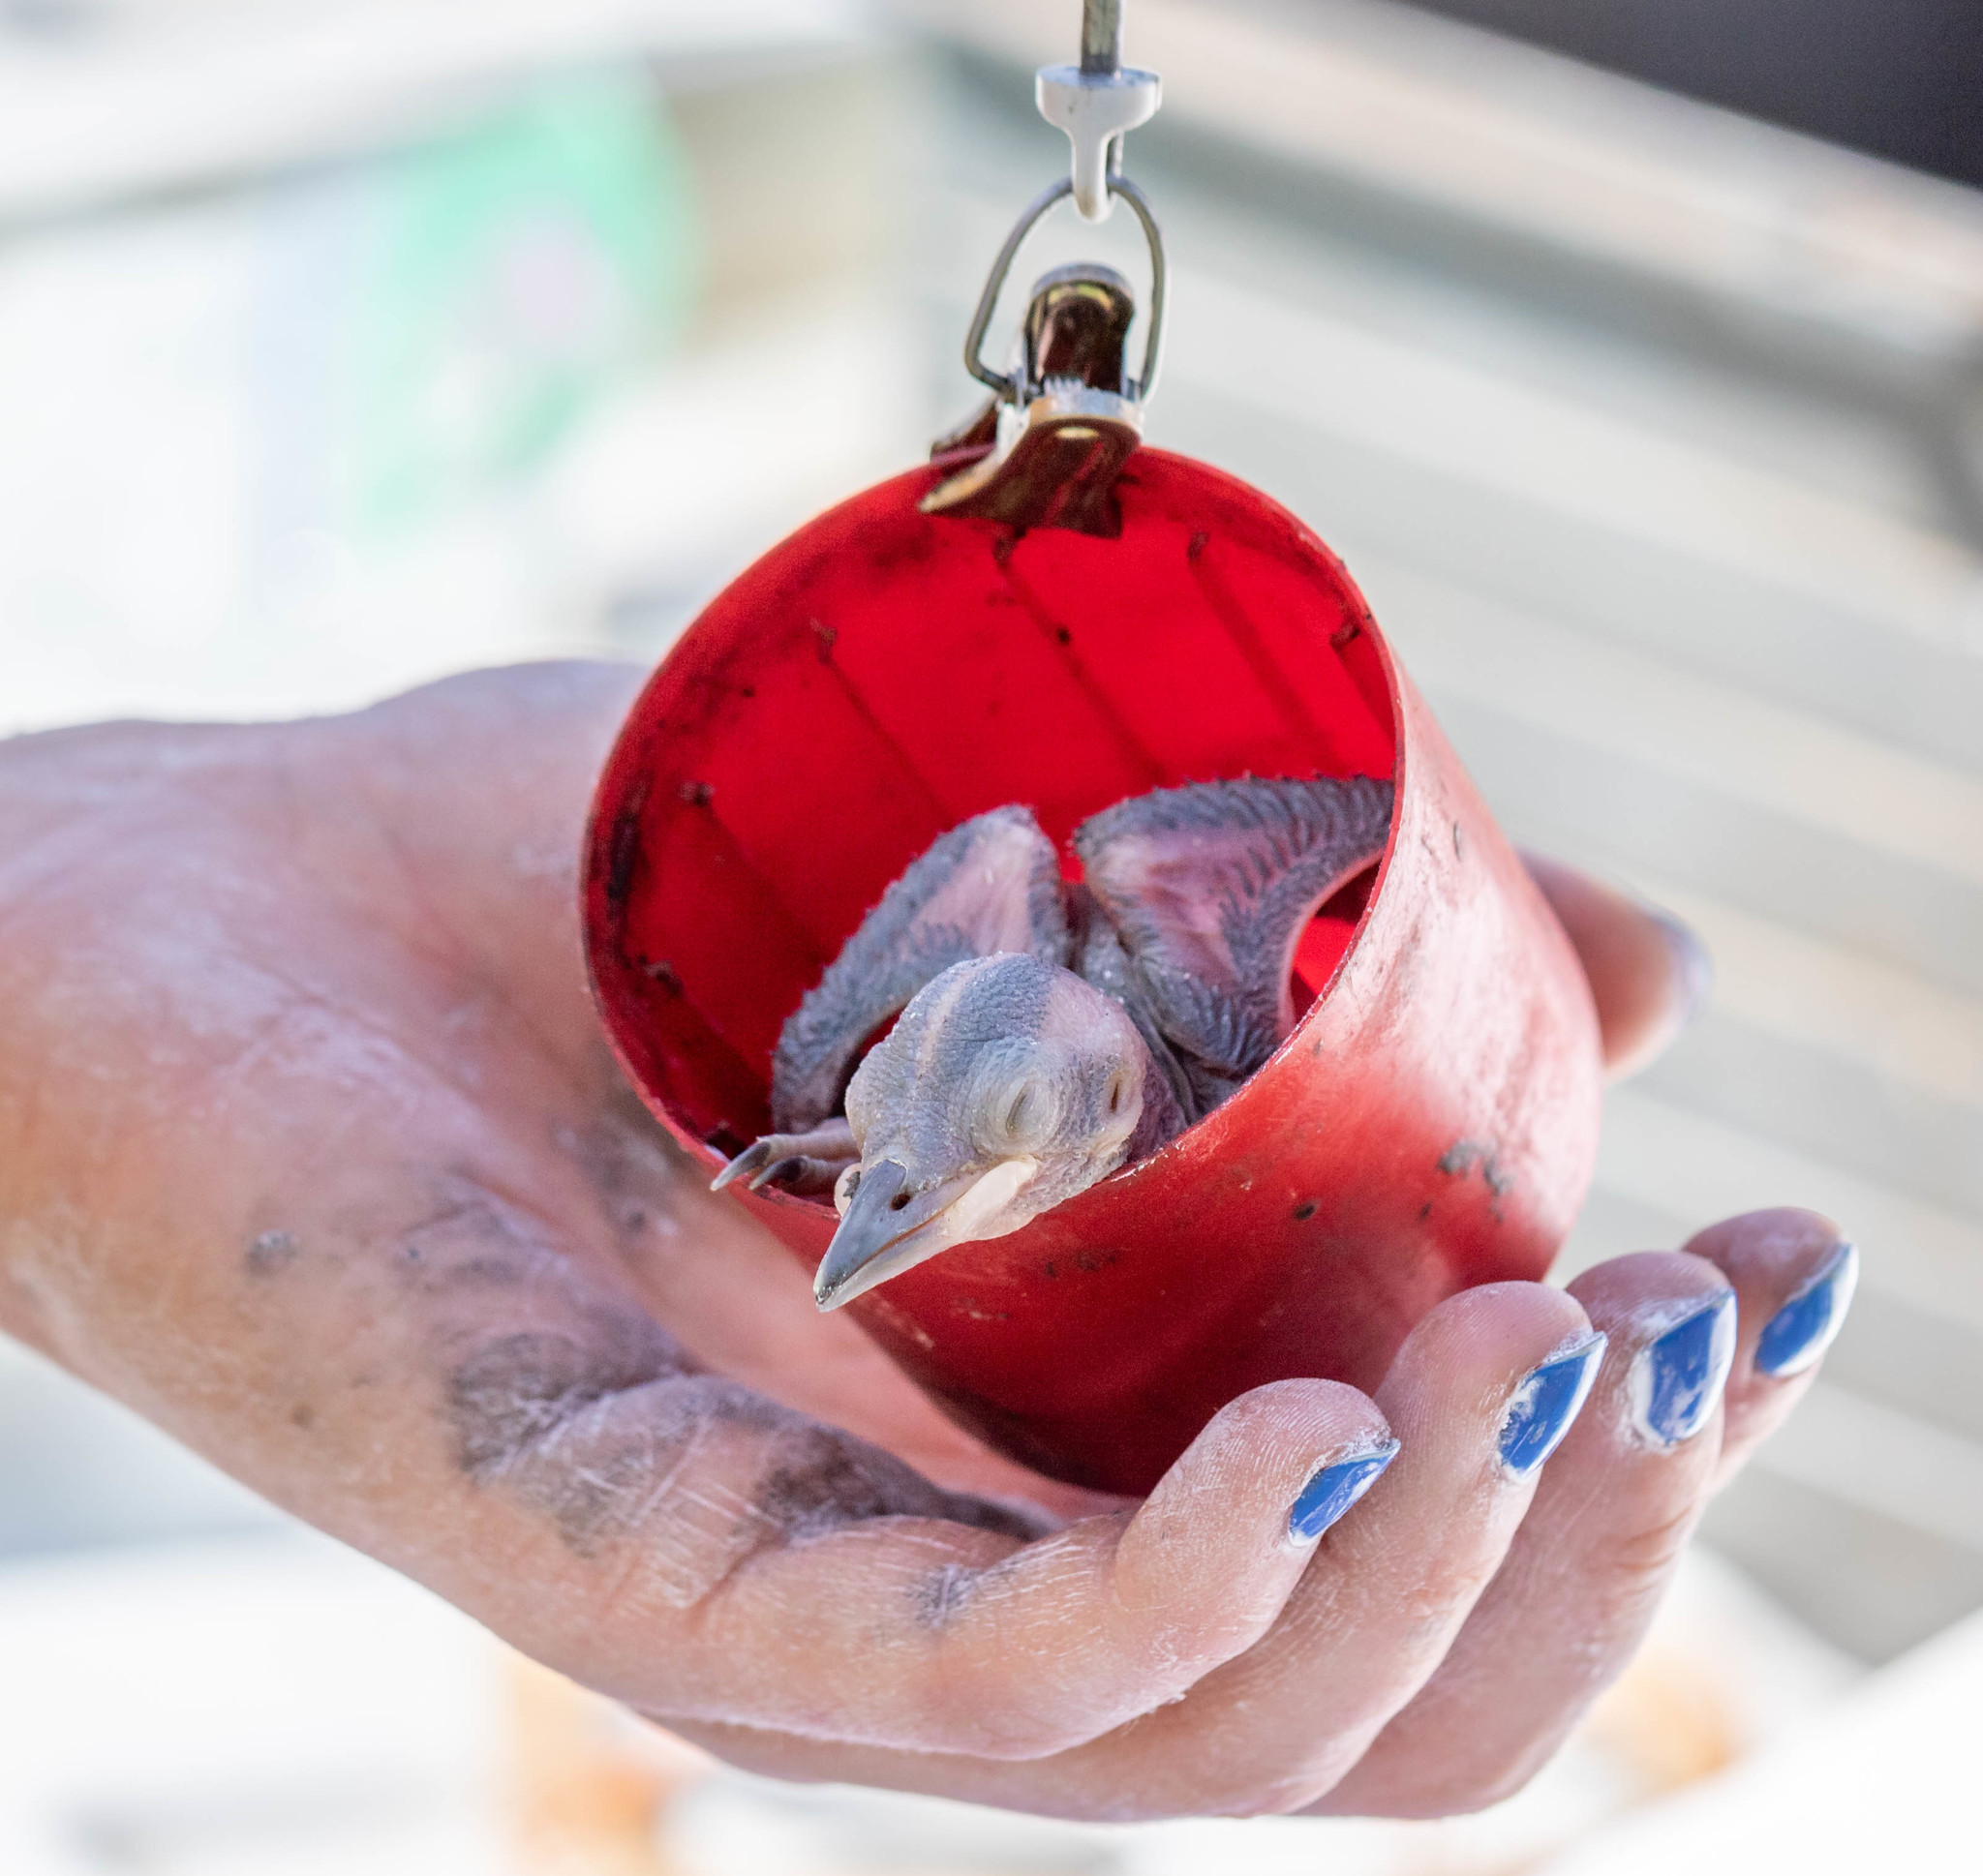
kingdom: Animalia
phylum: Chordata
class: Aves
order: Piciformes
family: Picidae
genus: Leuconotopicus
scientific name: Leuconotopicus borealis
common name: Red-cockaded woodpecker
